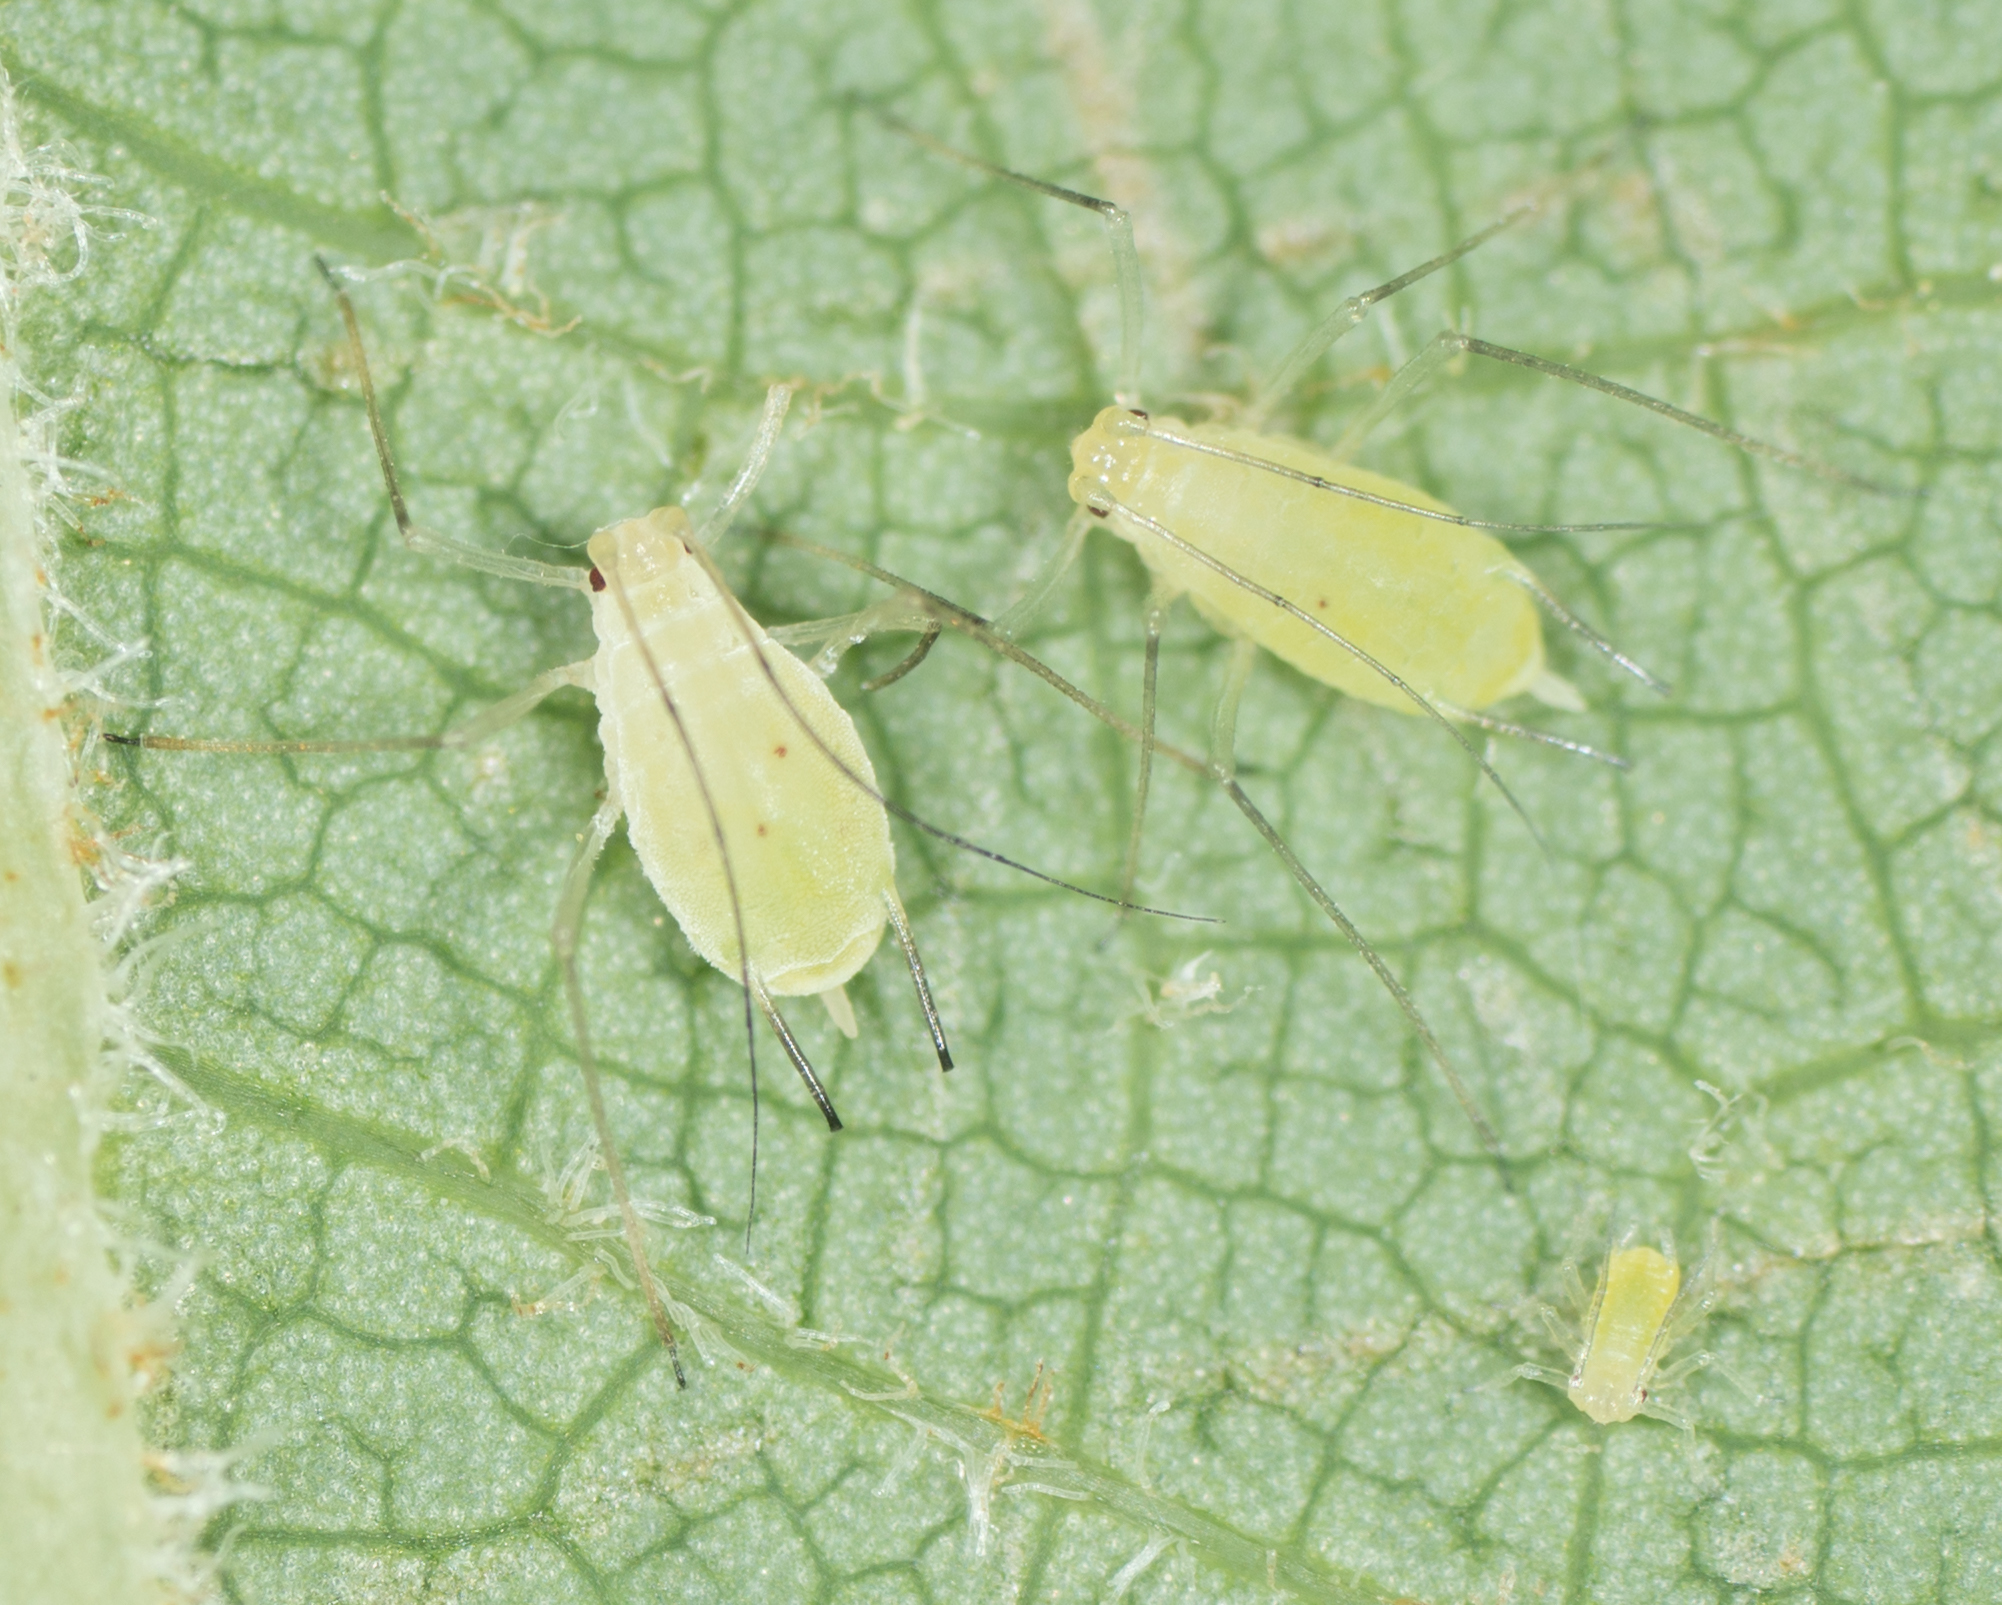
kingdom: Animalia
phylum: Arthropoda
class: Insecta
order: Hemiptera
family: Aphididae
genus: Illinoia
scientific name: Illinoia liriodendri
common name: Tuliptree aphid
